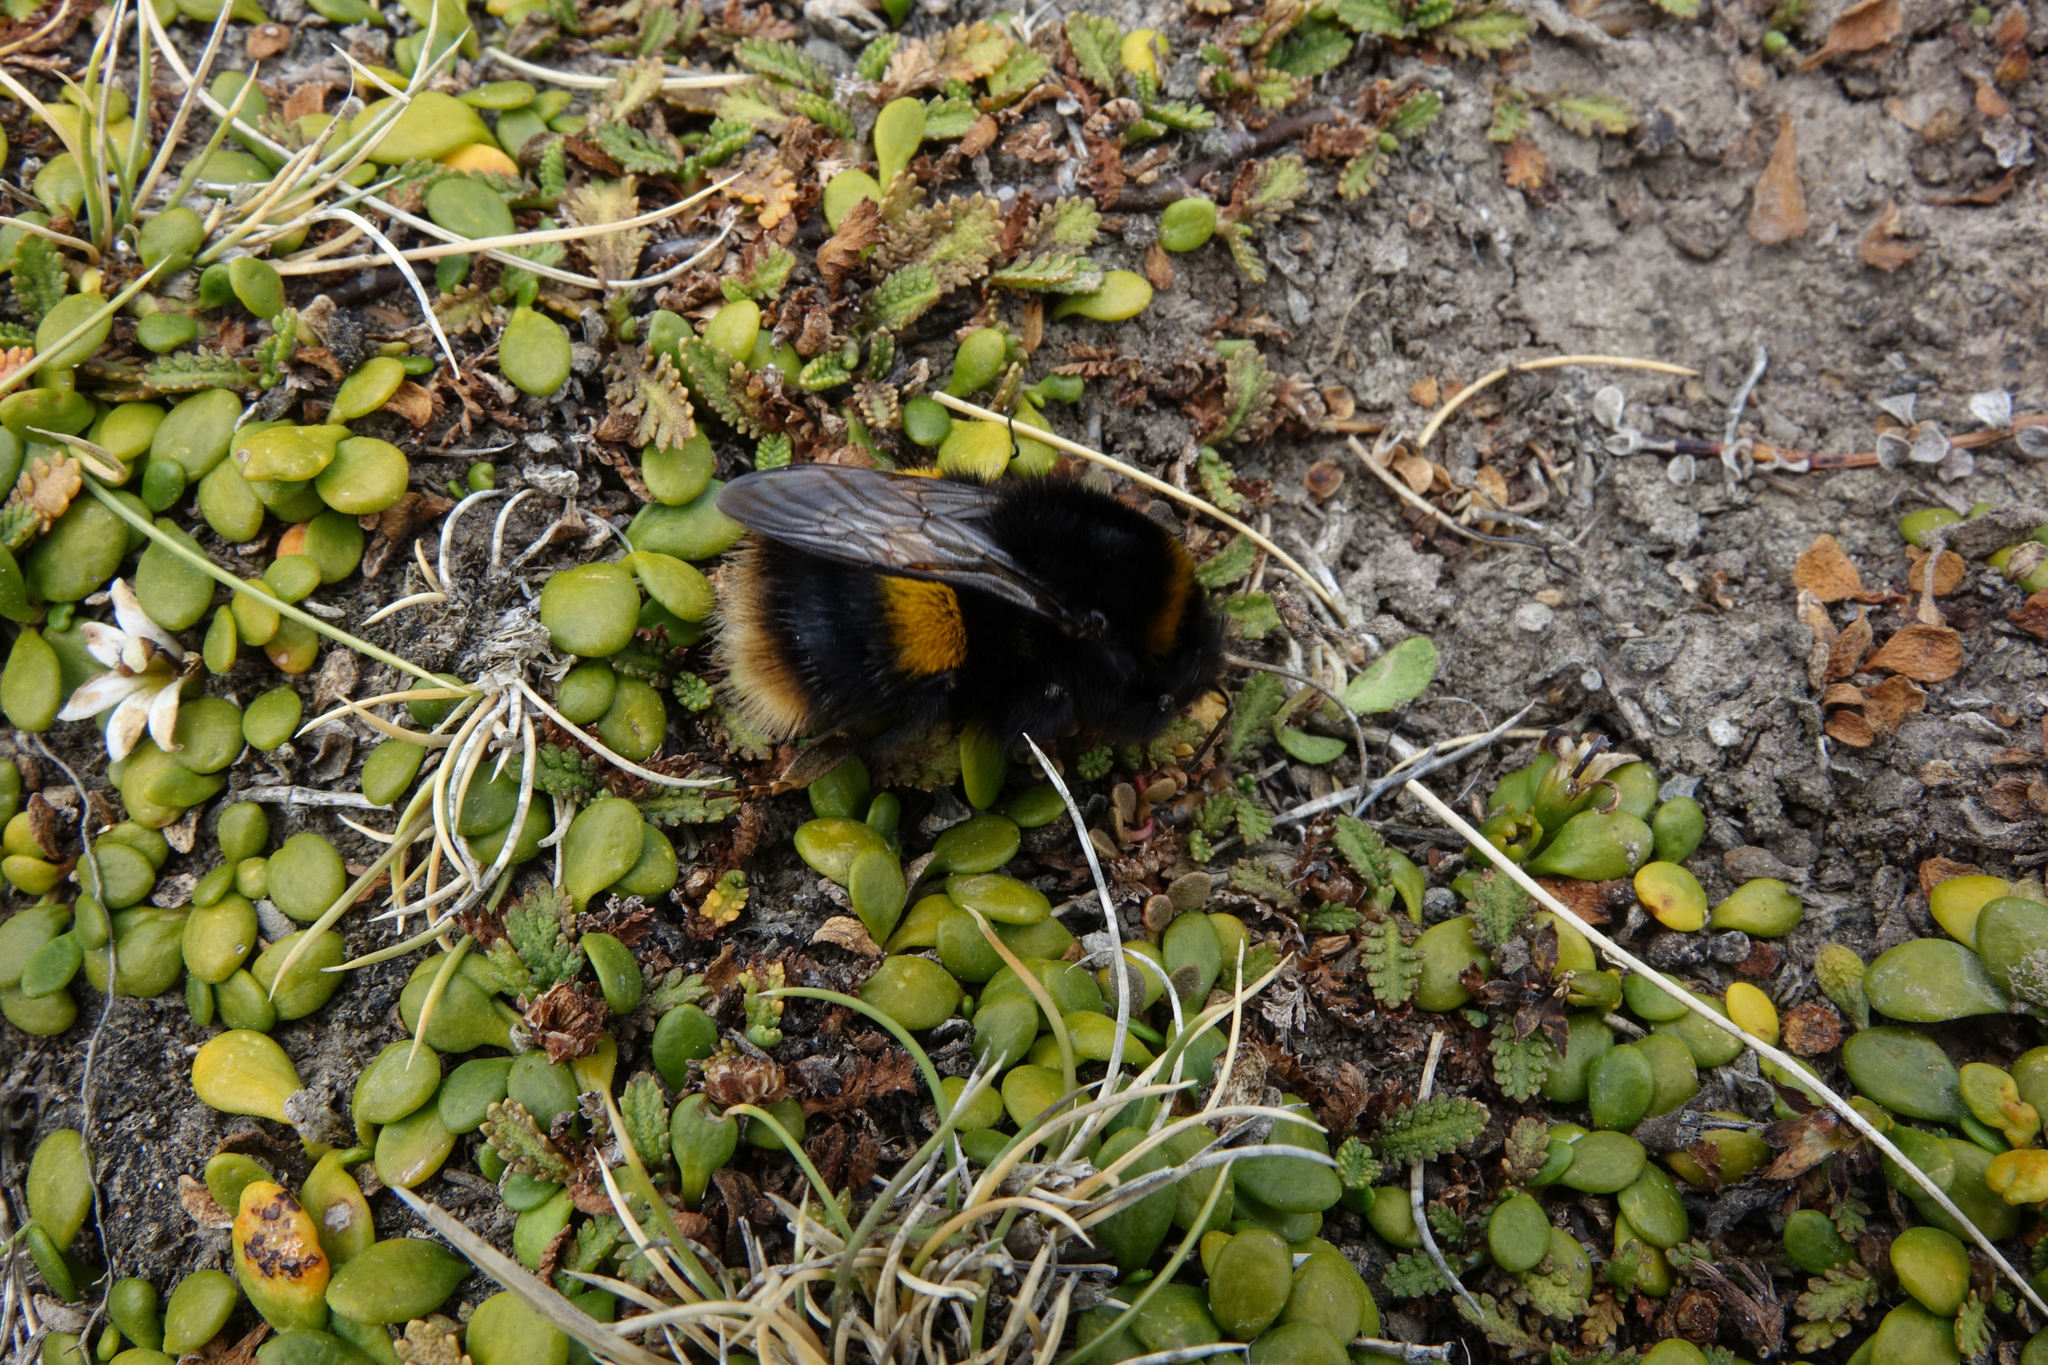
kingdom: Animalia
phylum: Arthropoda
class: Insecta
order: Hymenoptera
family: Apidae
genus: Bombus
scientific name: Bombus terrestris
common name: Buff-tailed bumblebee
